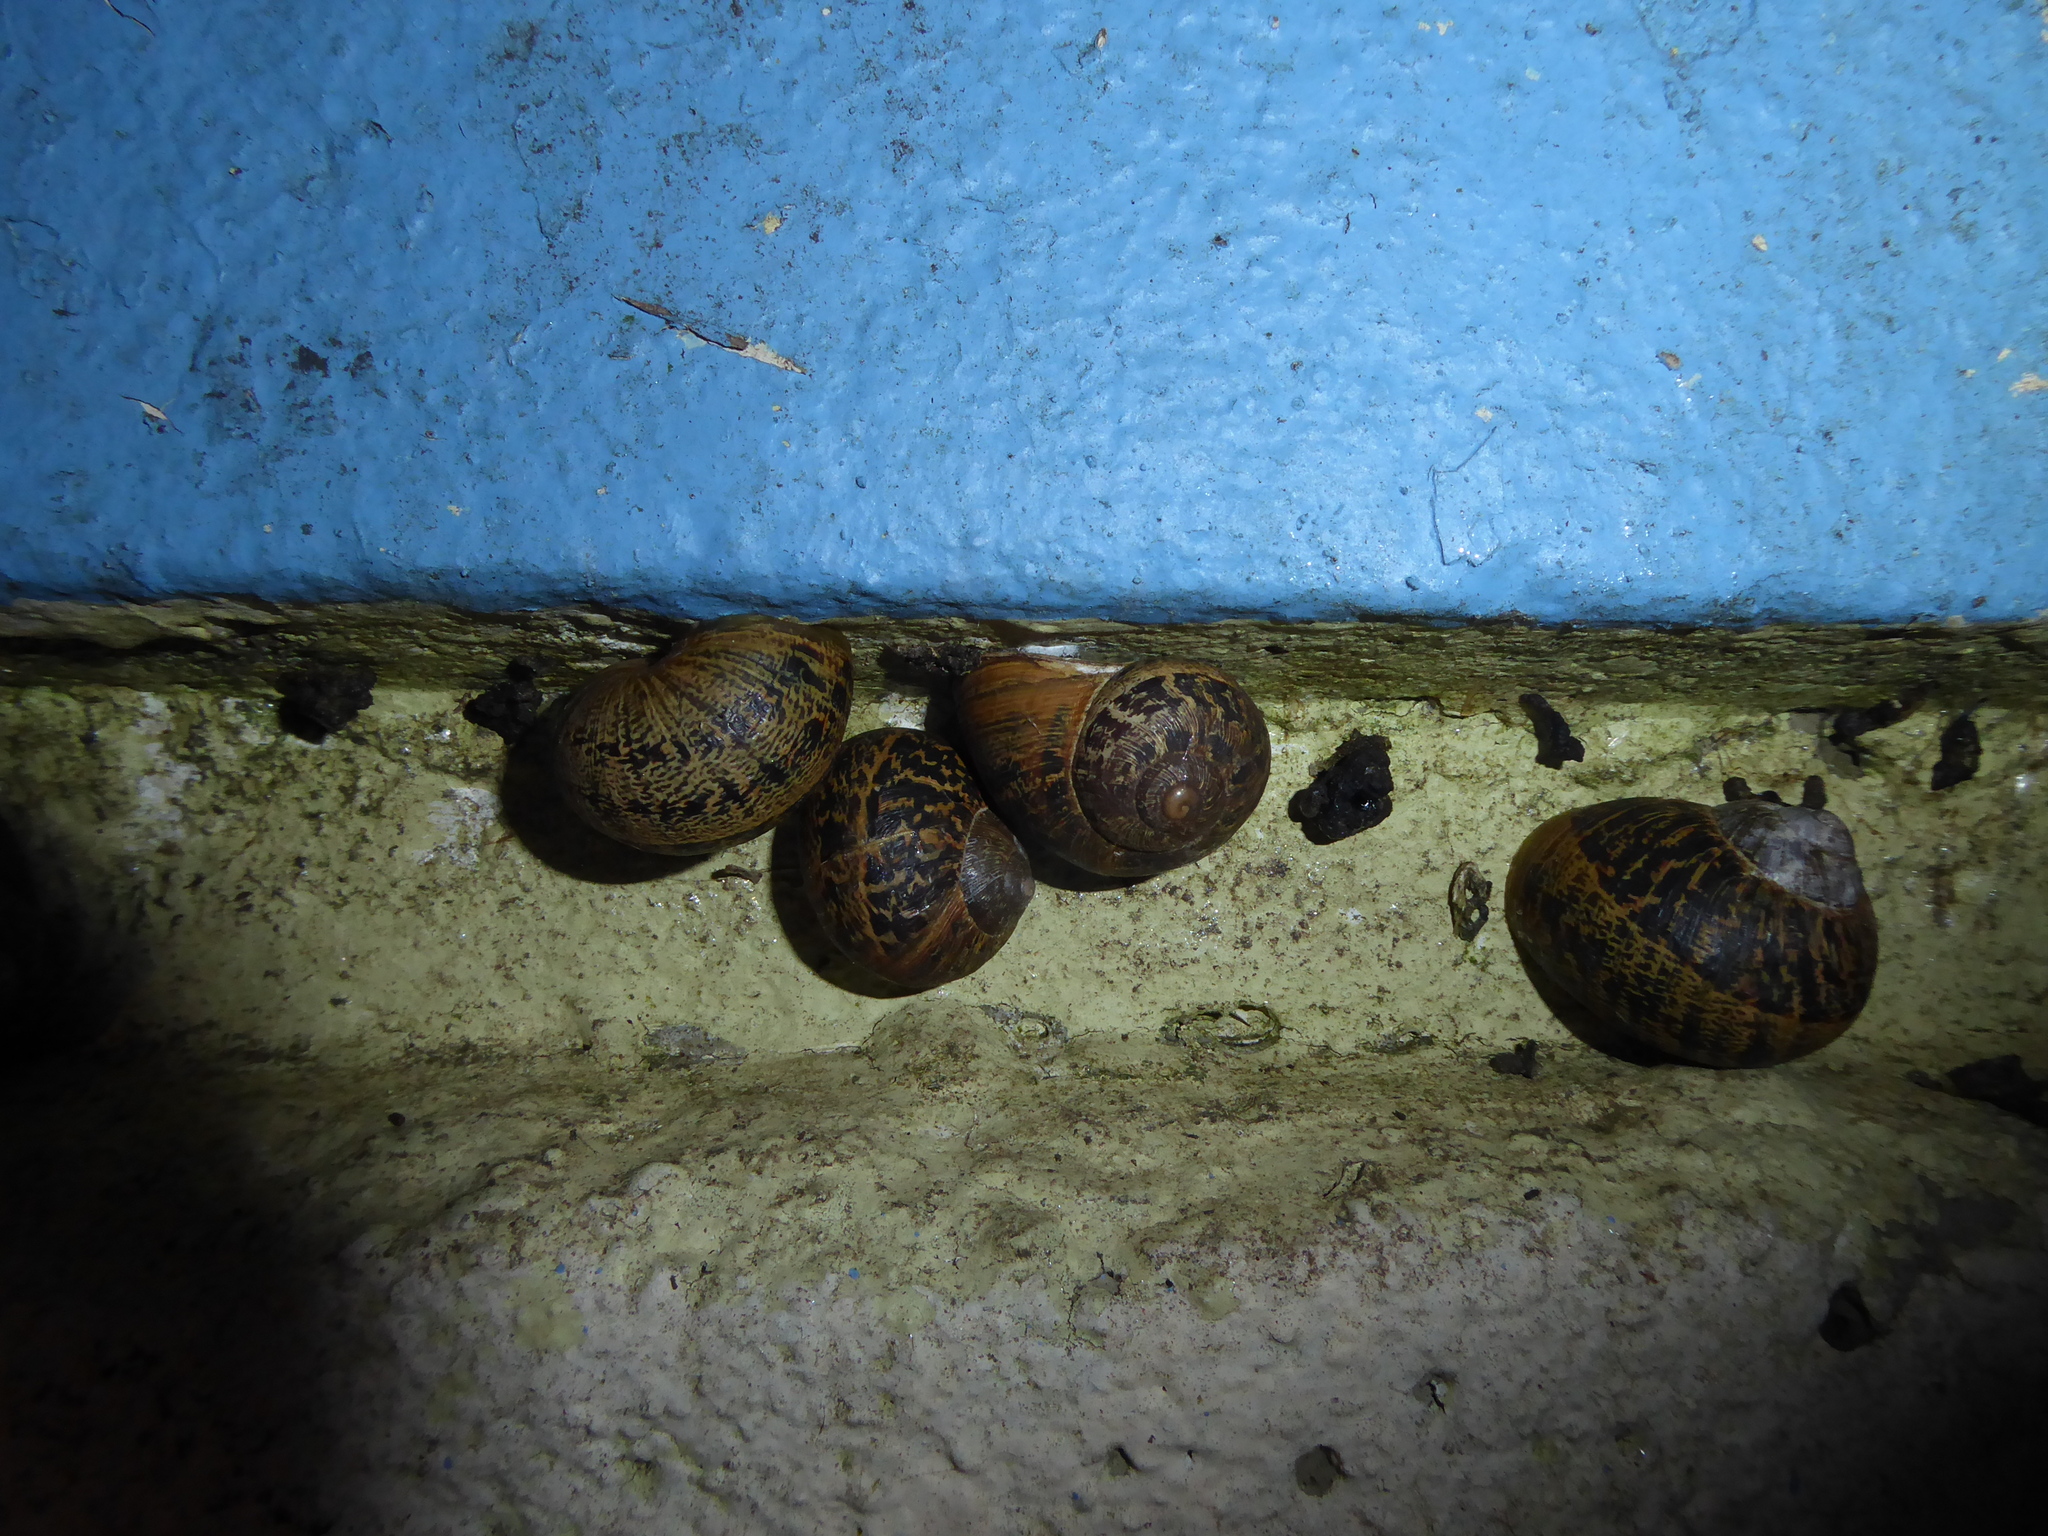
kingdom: Animalia
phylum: Mollusca
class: Gastropoda
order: Stylommatophora
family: Helicidae
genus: Cornu
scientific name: Cornu aspersum
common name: Brown garden snail
